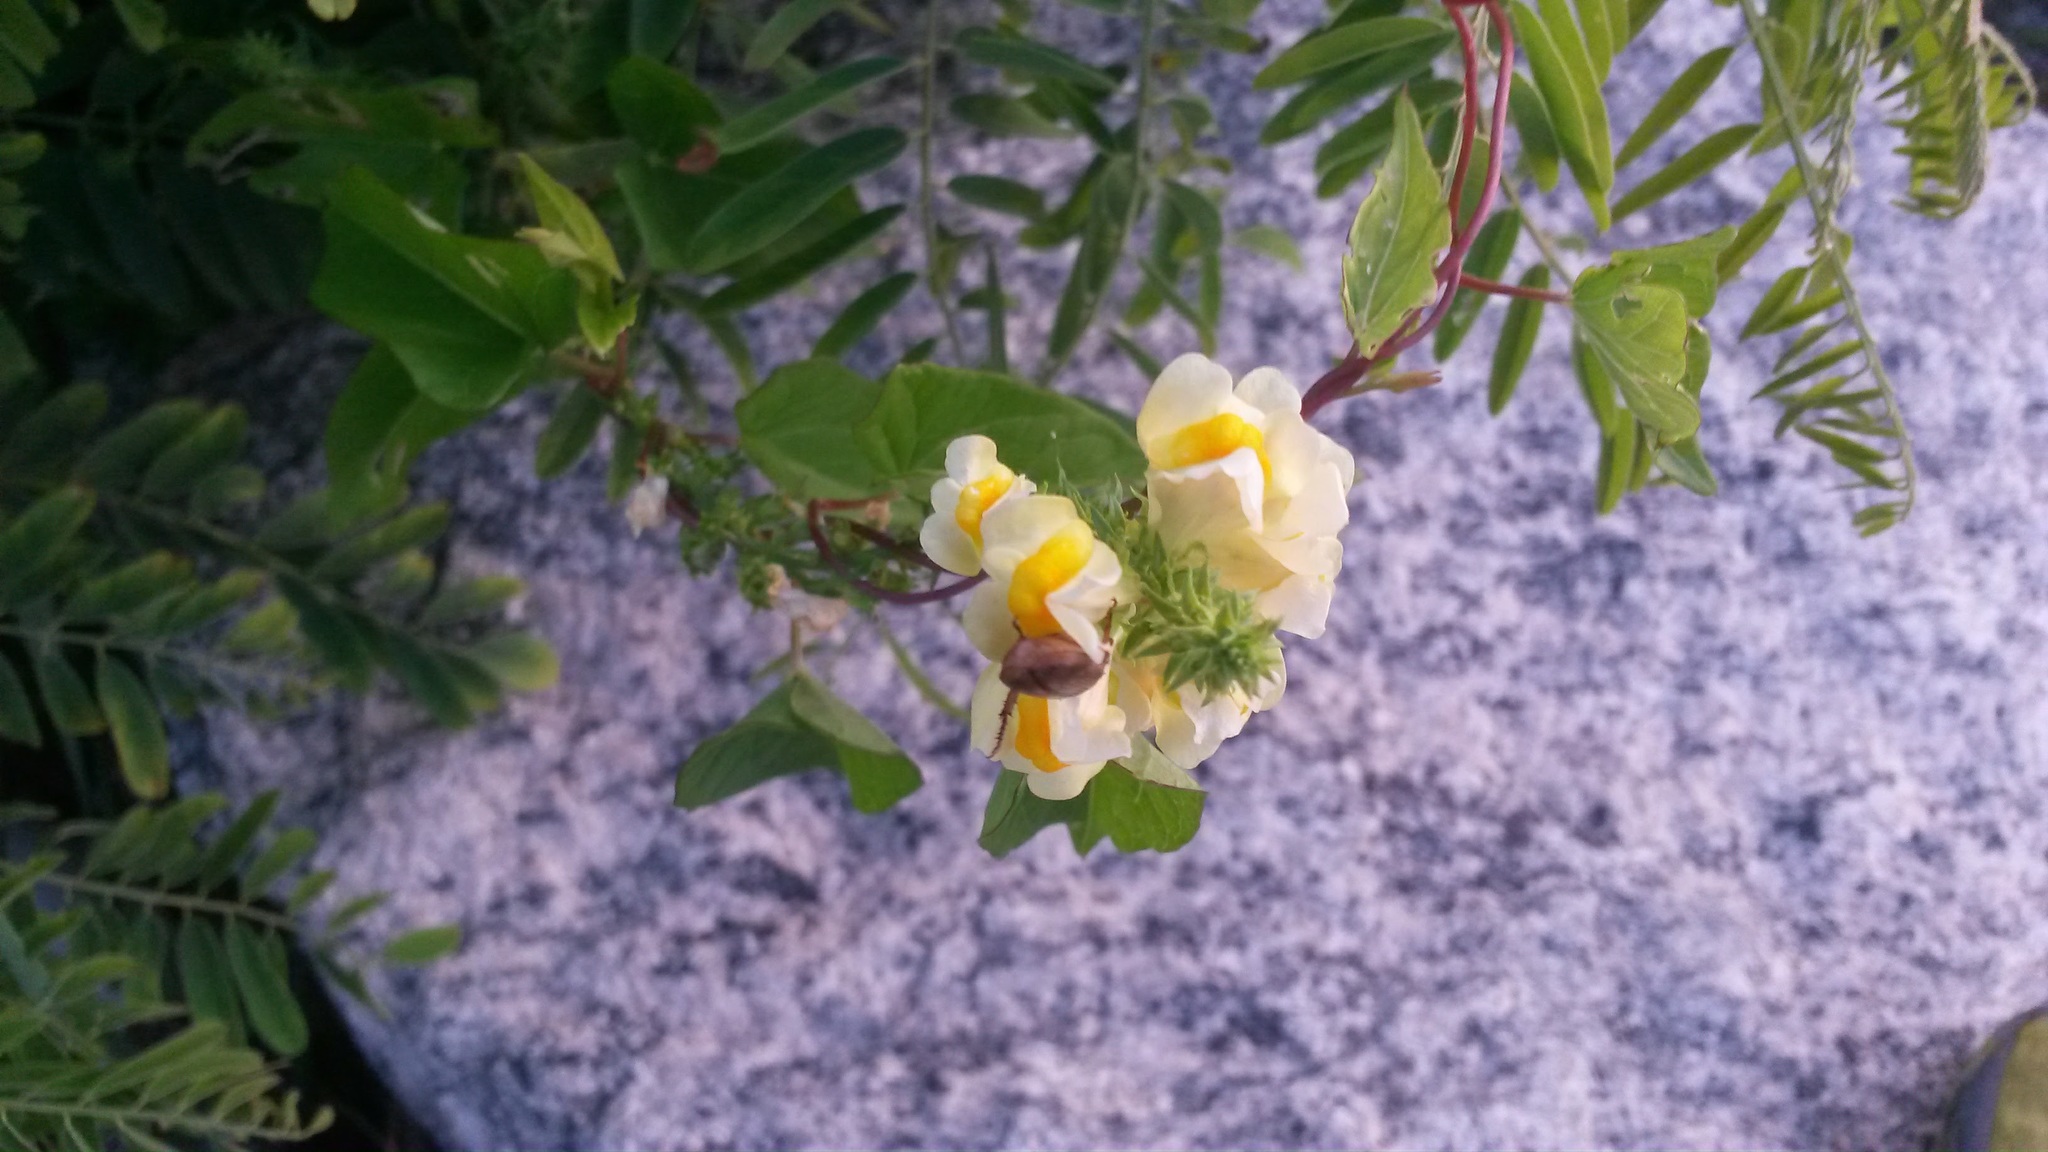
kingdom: Plantae
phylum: Tracheophyta
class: Magnoliopsida
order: Lamiales
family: Plantaginaceae
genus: Linaria
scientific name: Linaria vulgaris
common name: Butter and eggs
